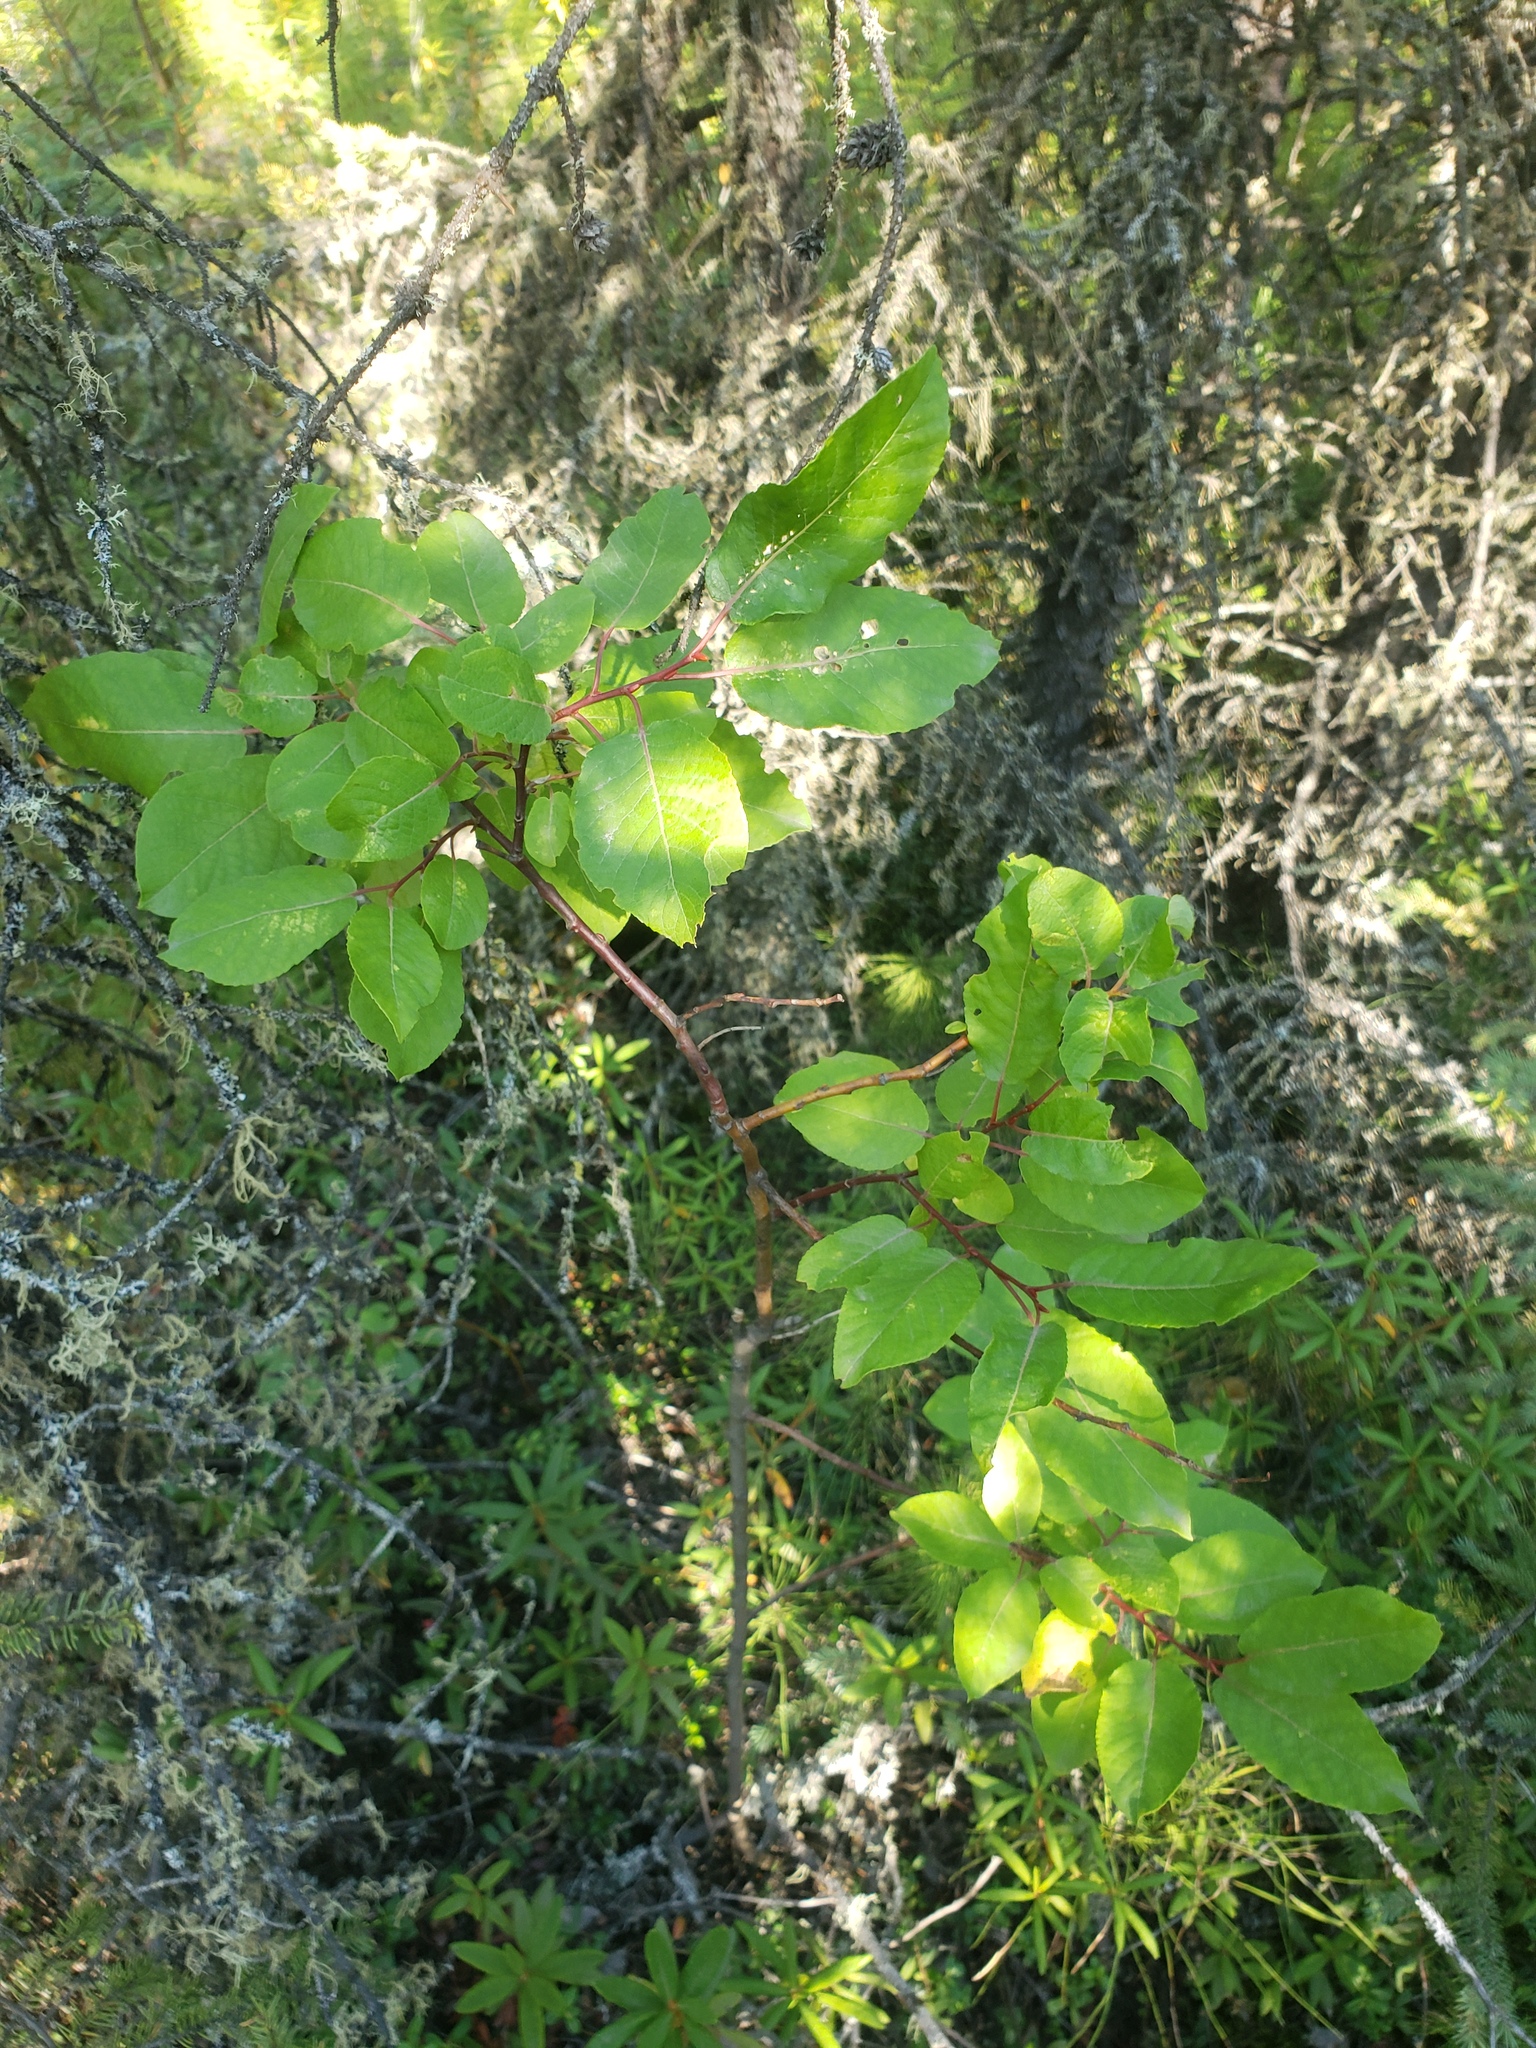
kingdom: Plantae
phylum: Tracheophyta
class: Magnoliopsida
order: Malpighiales
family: Salicaceae
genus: Salix
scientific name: Salix pyrifolia
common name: Balsam willow
